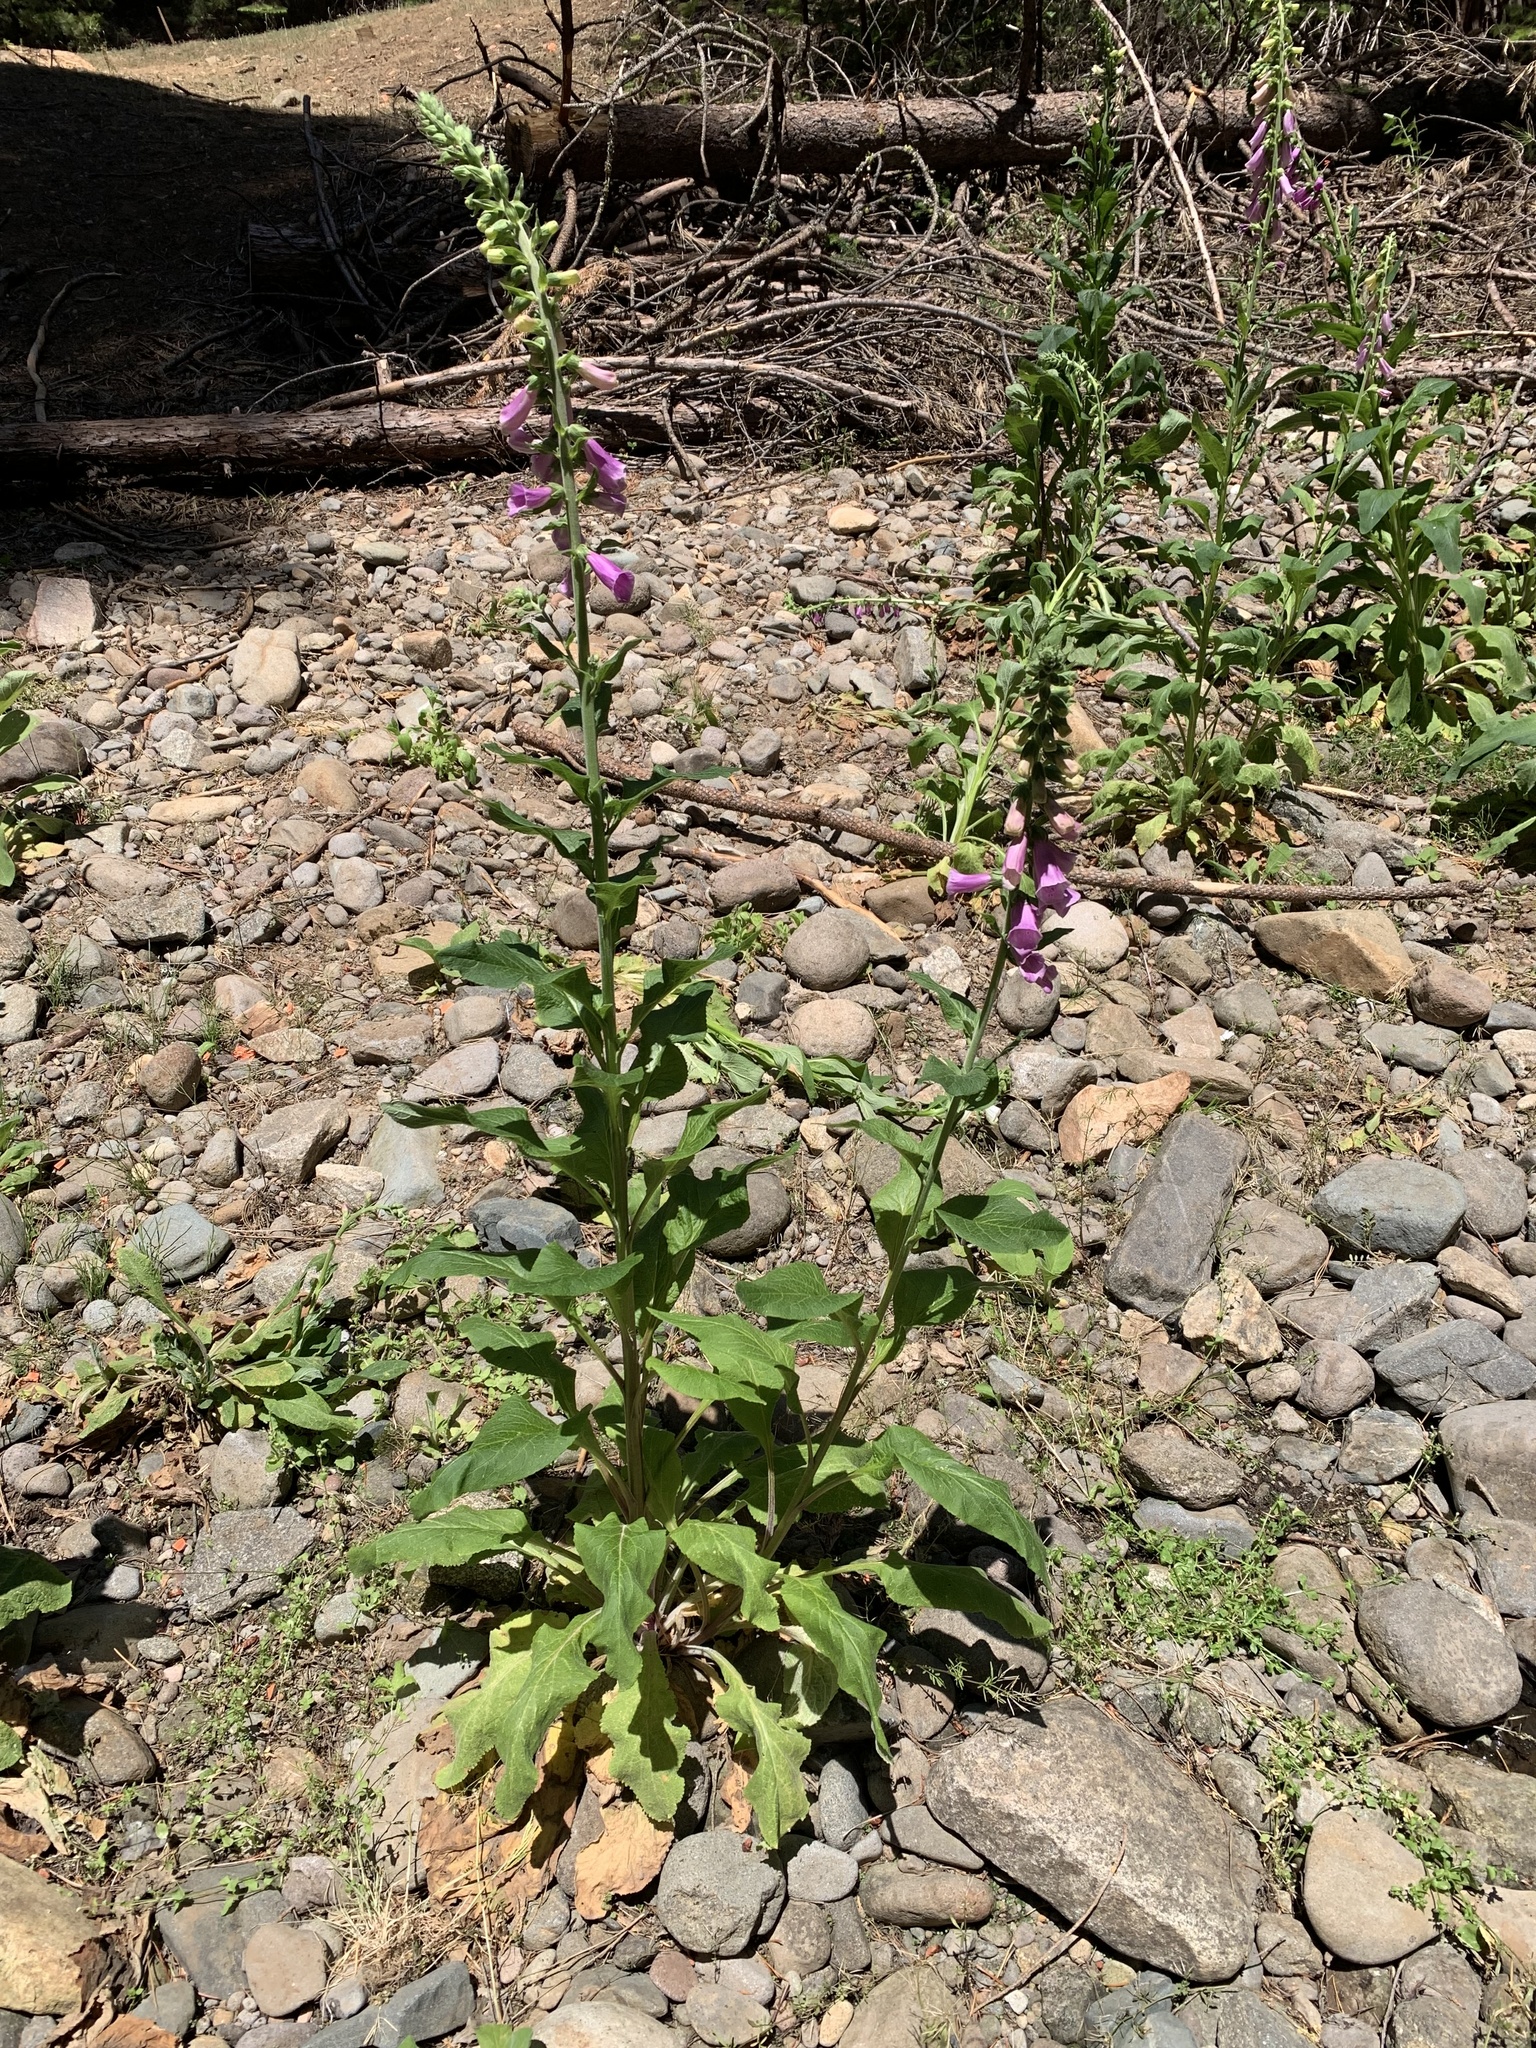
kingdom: Plantae
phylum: Tracheophyta
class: Magnoliopsida
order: Lamiales
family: Plantaginaceae
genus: Digitalis
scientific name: Digitalis purpurea
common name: Foxglove
